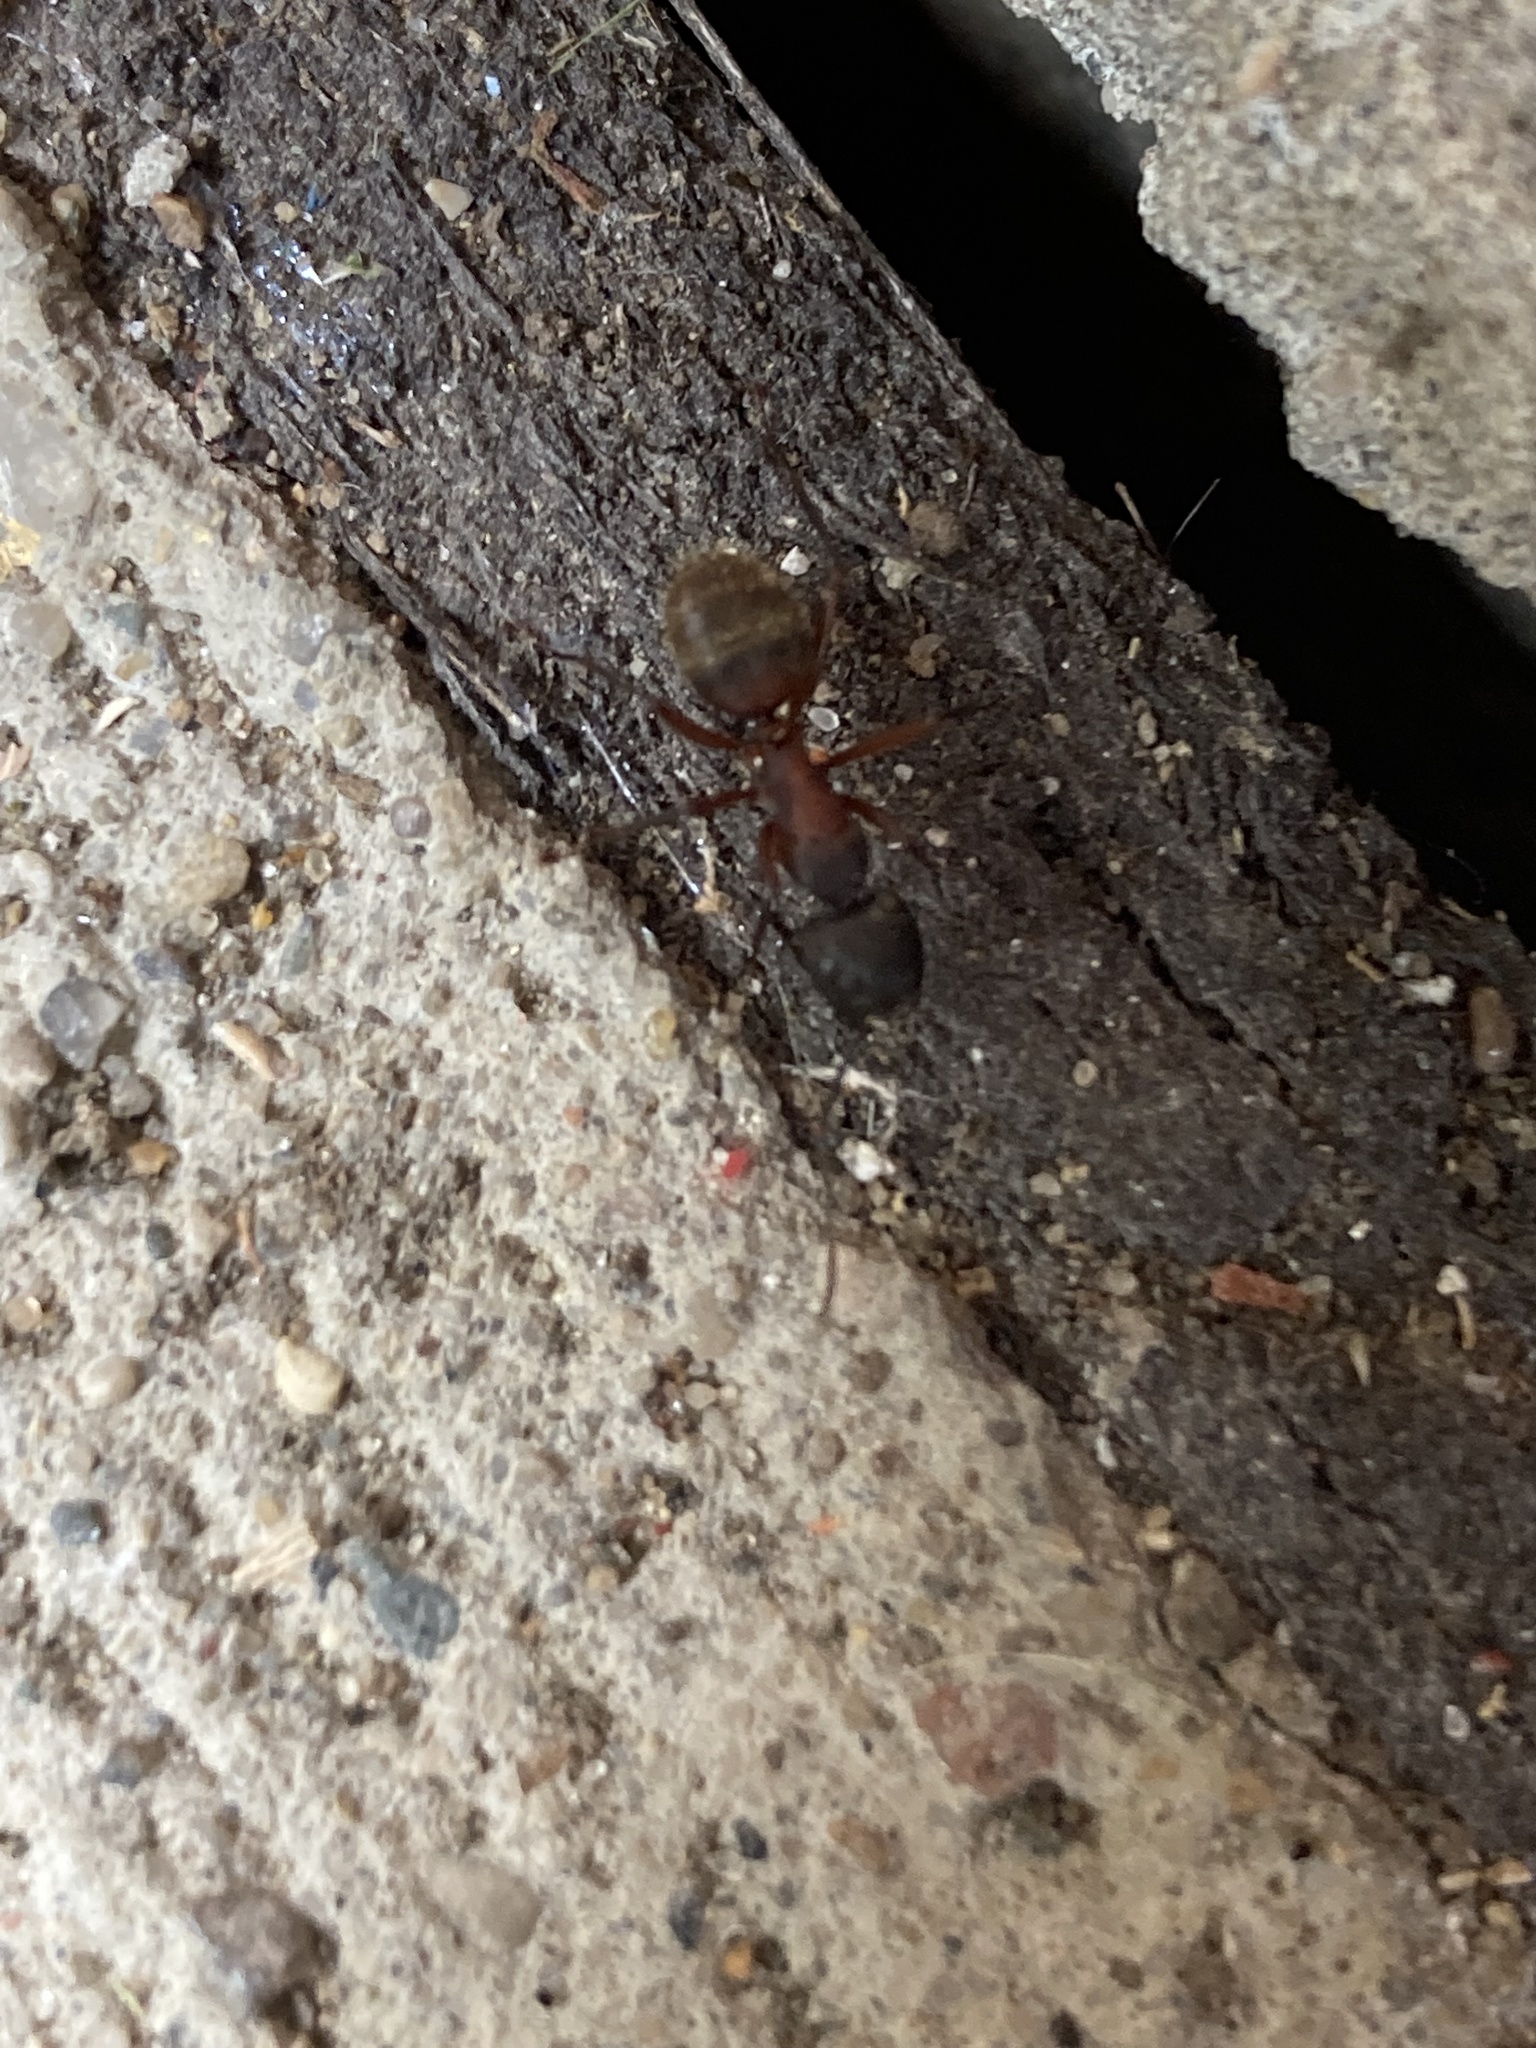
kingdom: Animalia
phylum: Arthropoda
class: Insecta
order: Hymenoptera
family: Formicidae
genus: Camponotus
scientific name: Camponotus chromaiodes
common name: Red carpenter ant
